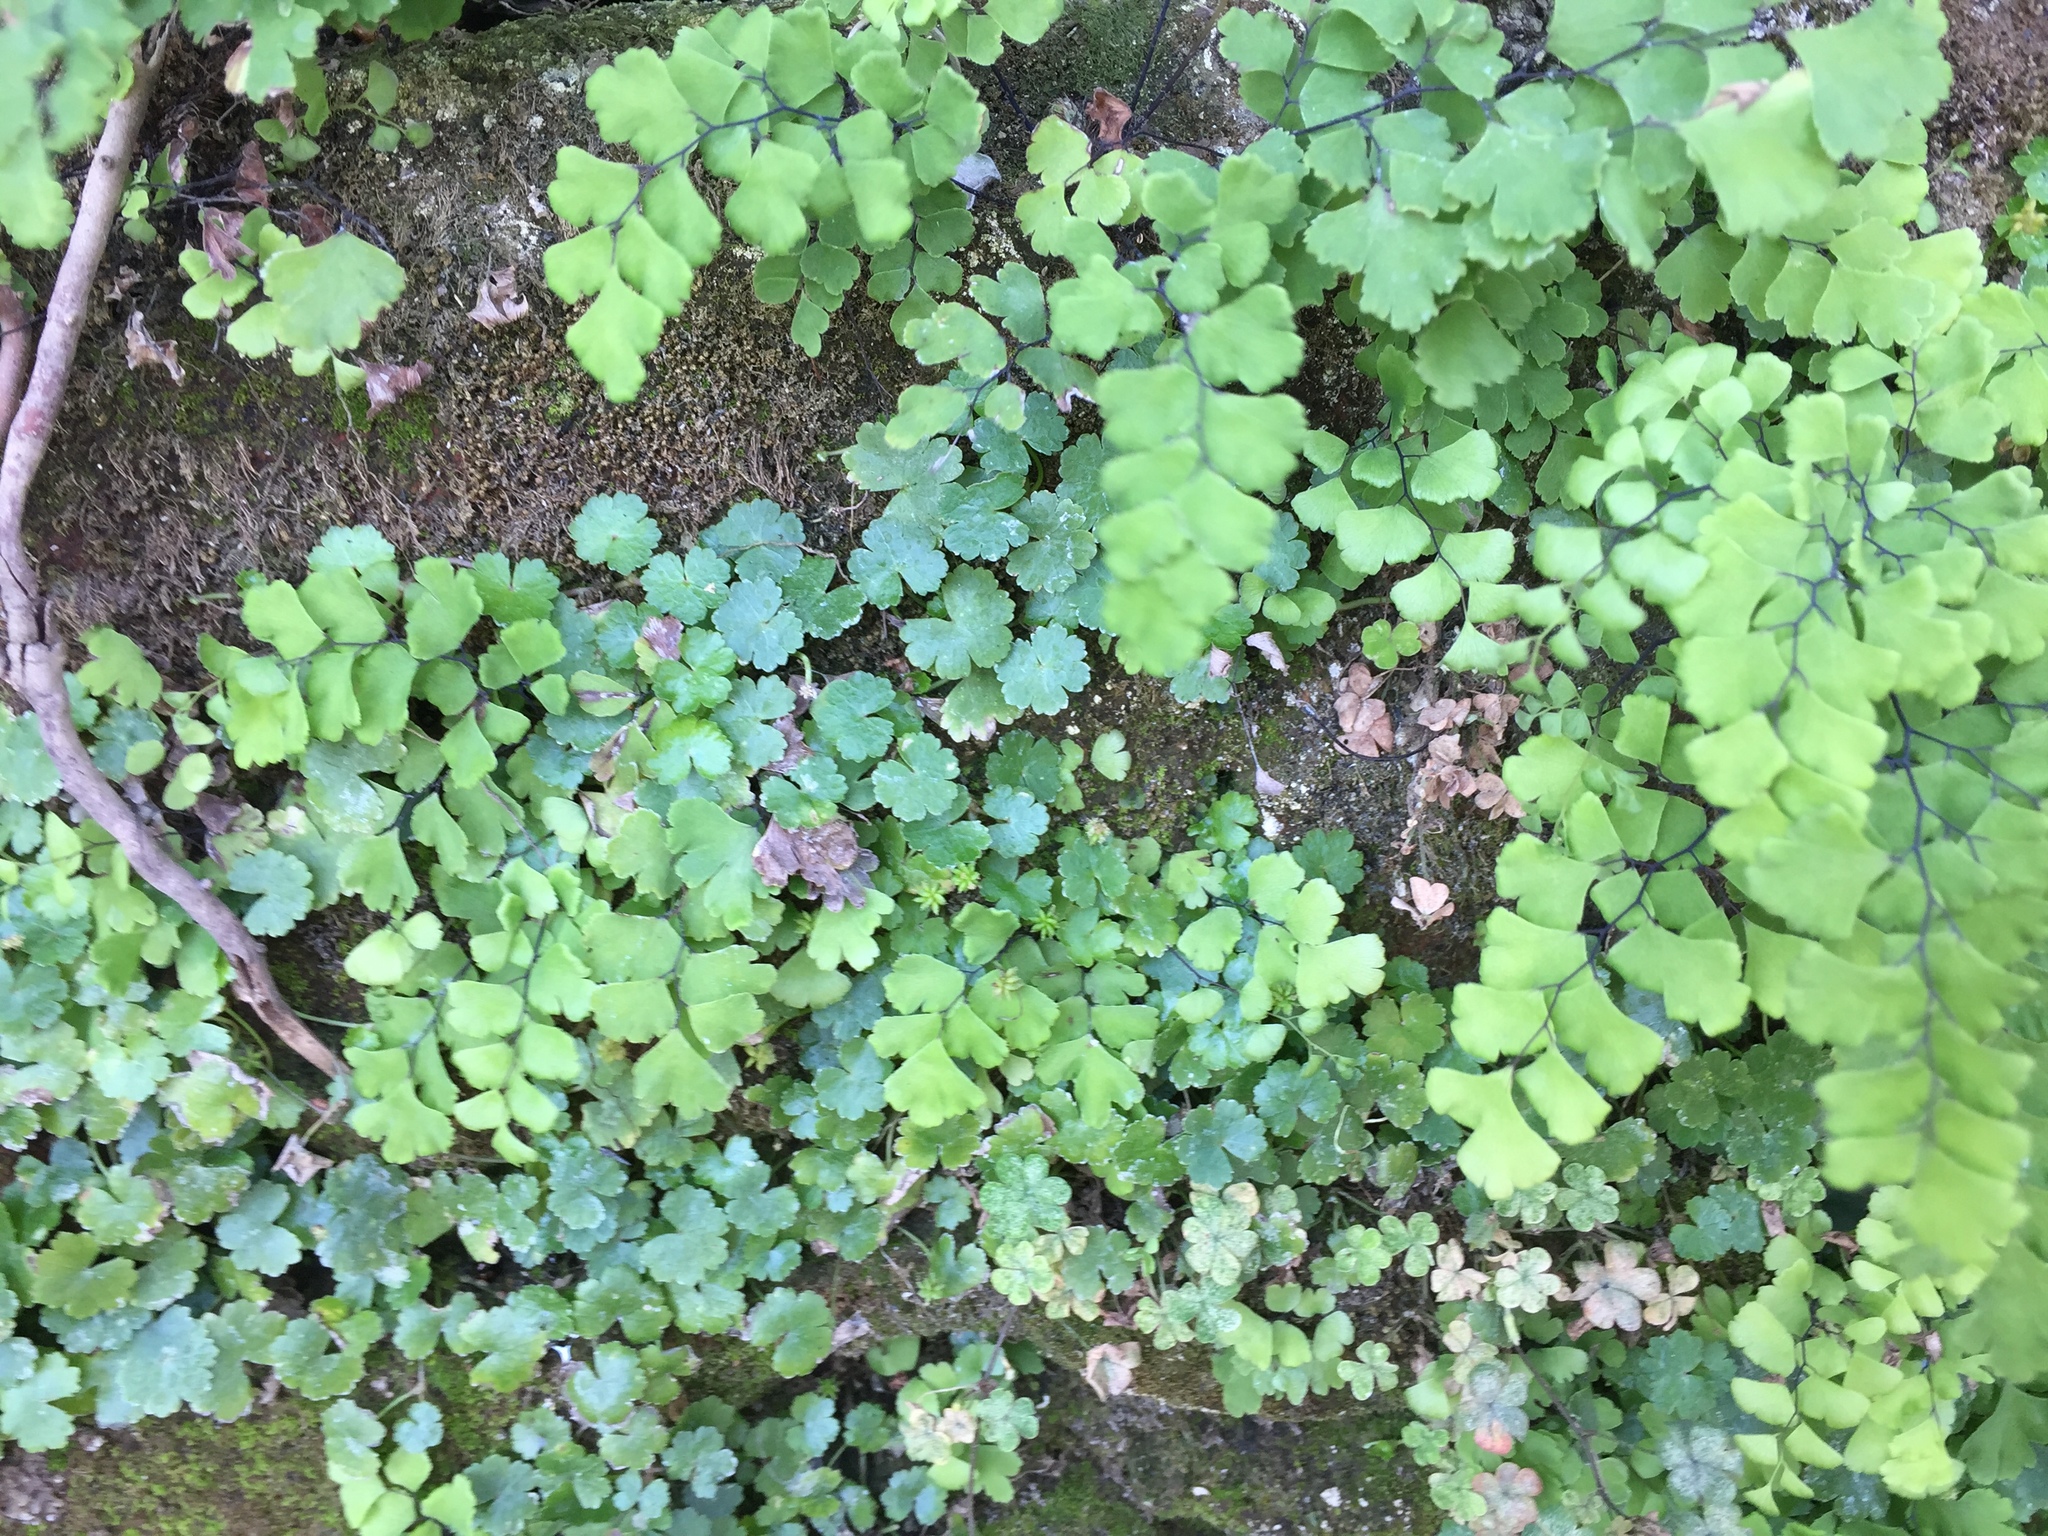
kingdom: Plantae
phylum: Tracheophyta
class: Polypodiopsida
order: Polypodiales
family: Pteridaceae
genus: Adiantum
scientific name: Adiantum capillus-veneris
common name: Maidenhair fern
